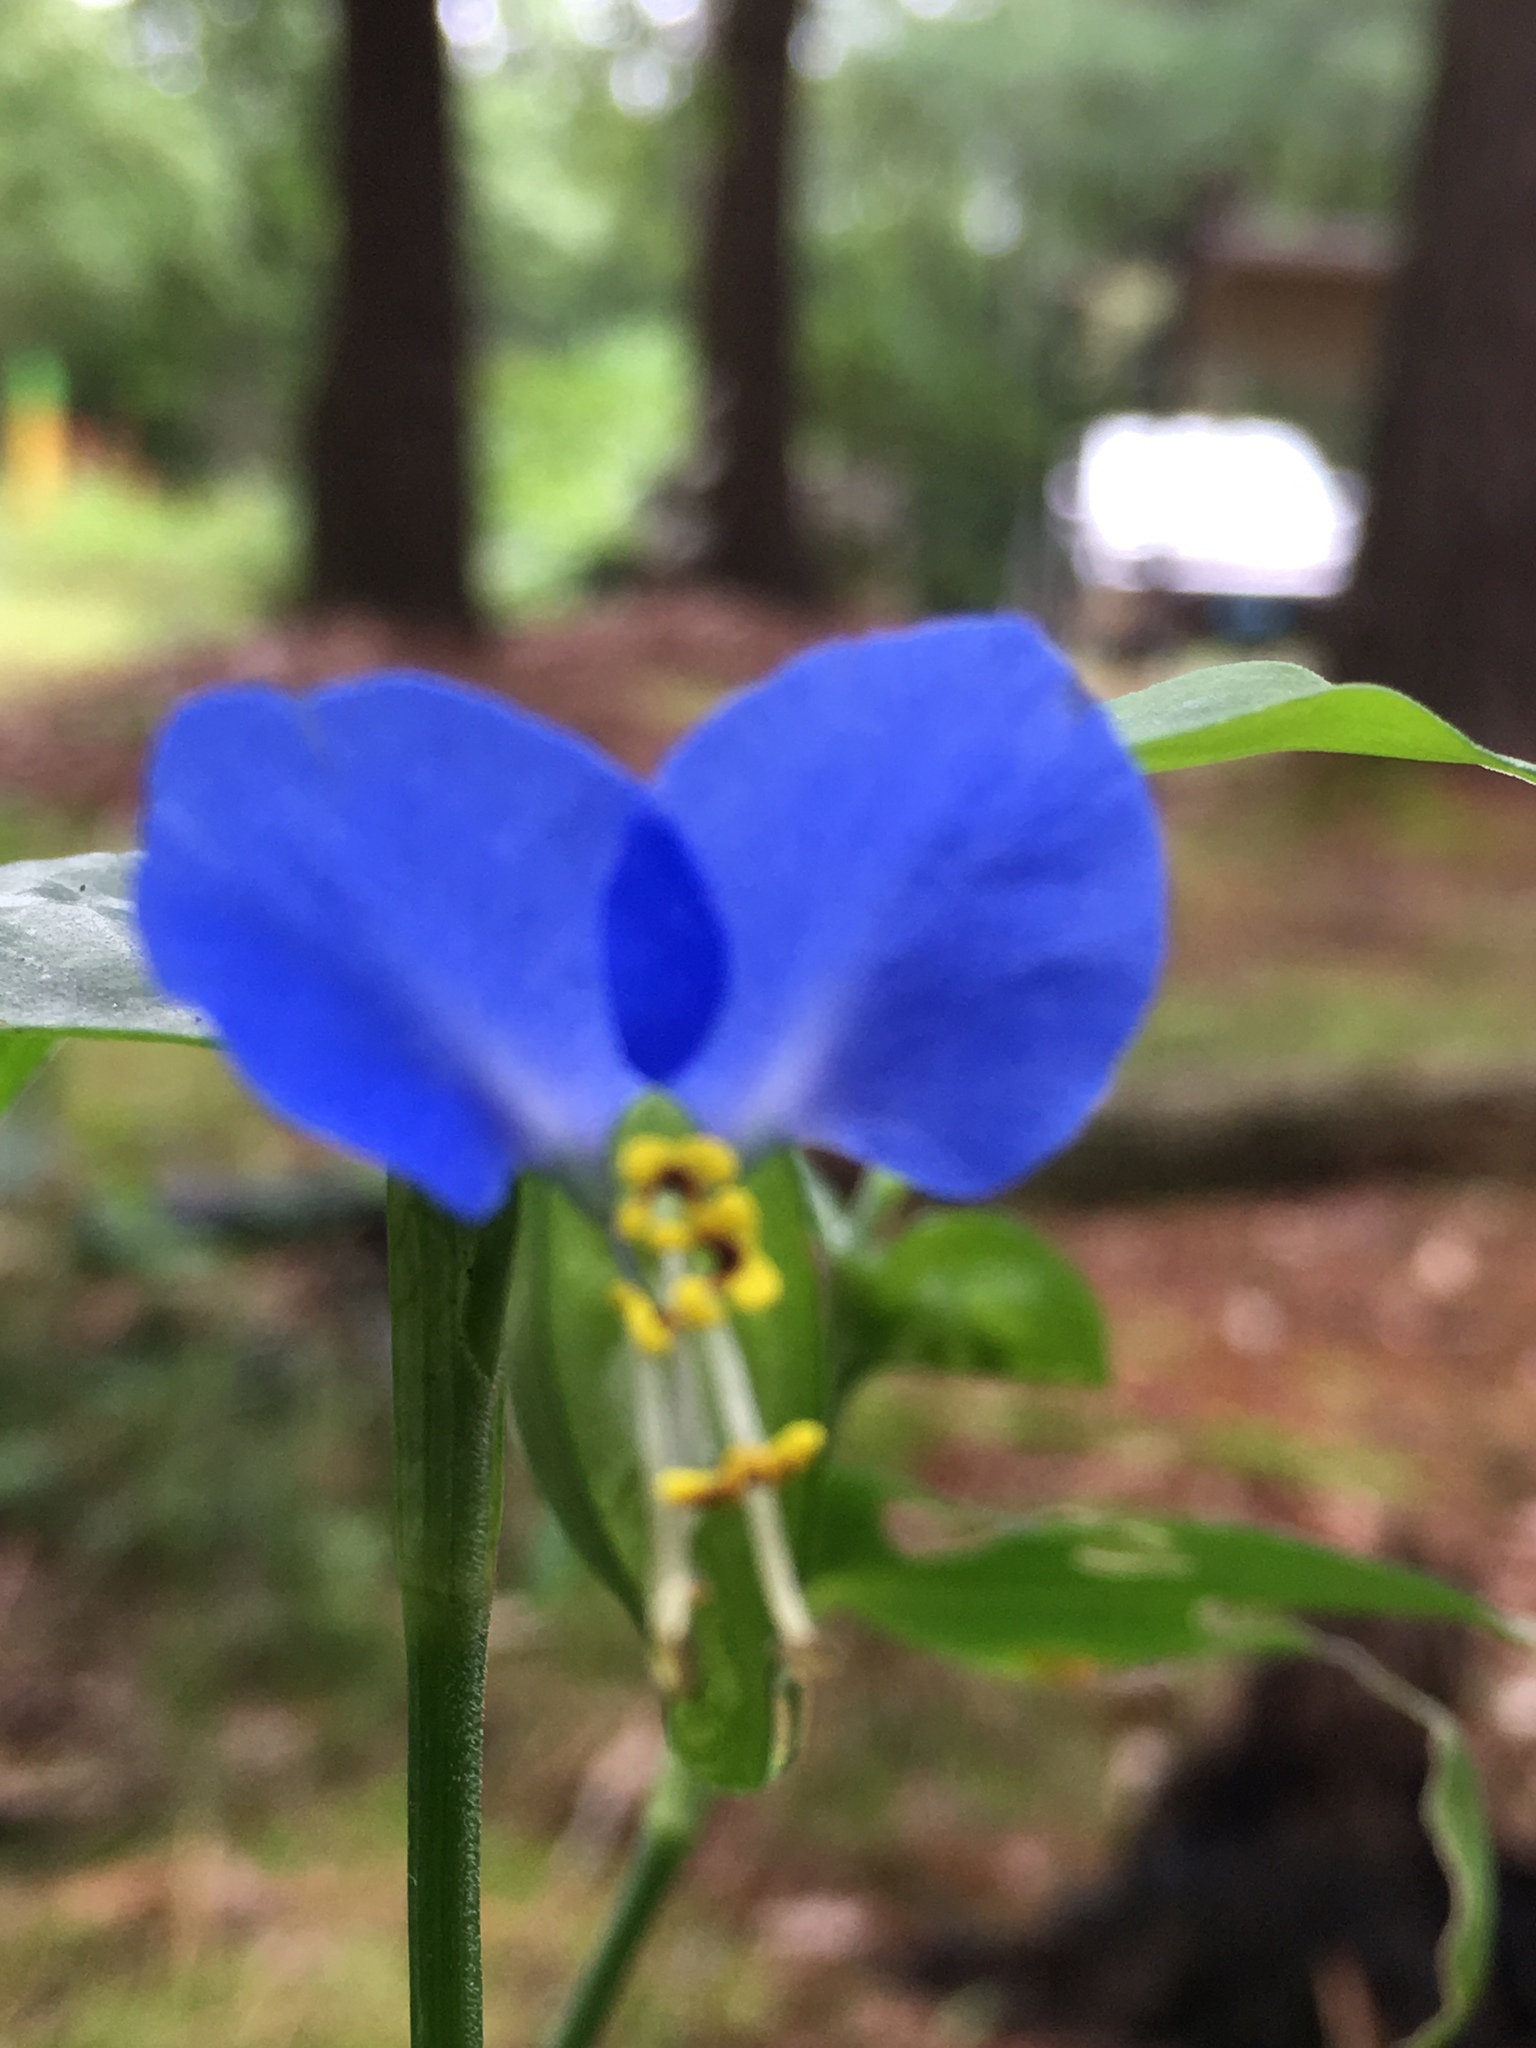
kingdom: Plantae
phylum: Tracheophyta
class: Liliopsida
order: Commelinales
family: Commelinaceae
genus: Commelina
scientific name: Commelina communis
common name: Asiatic dayflower
